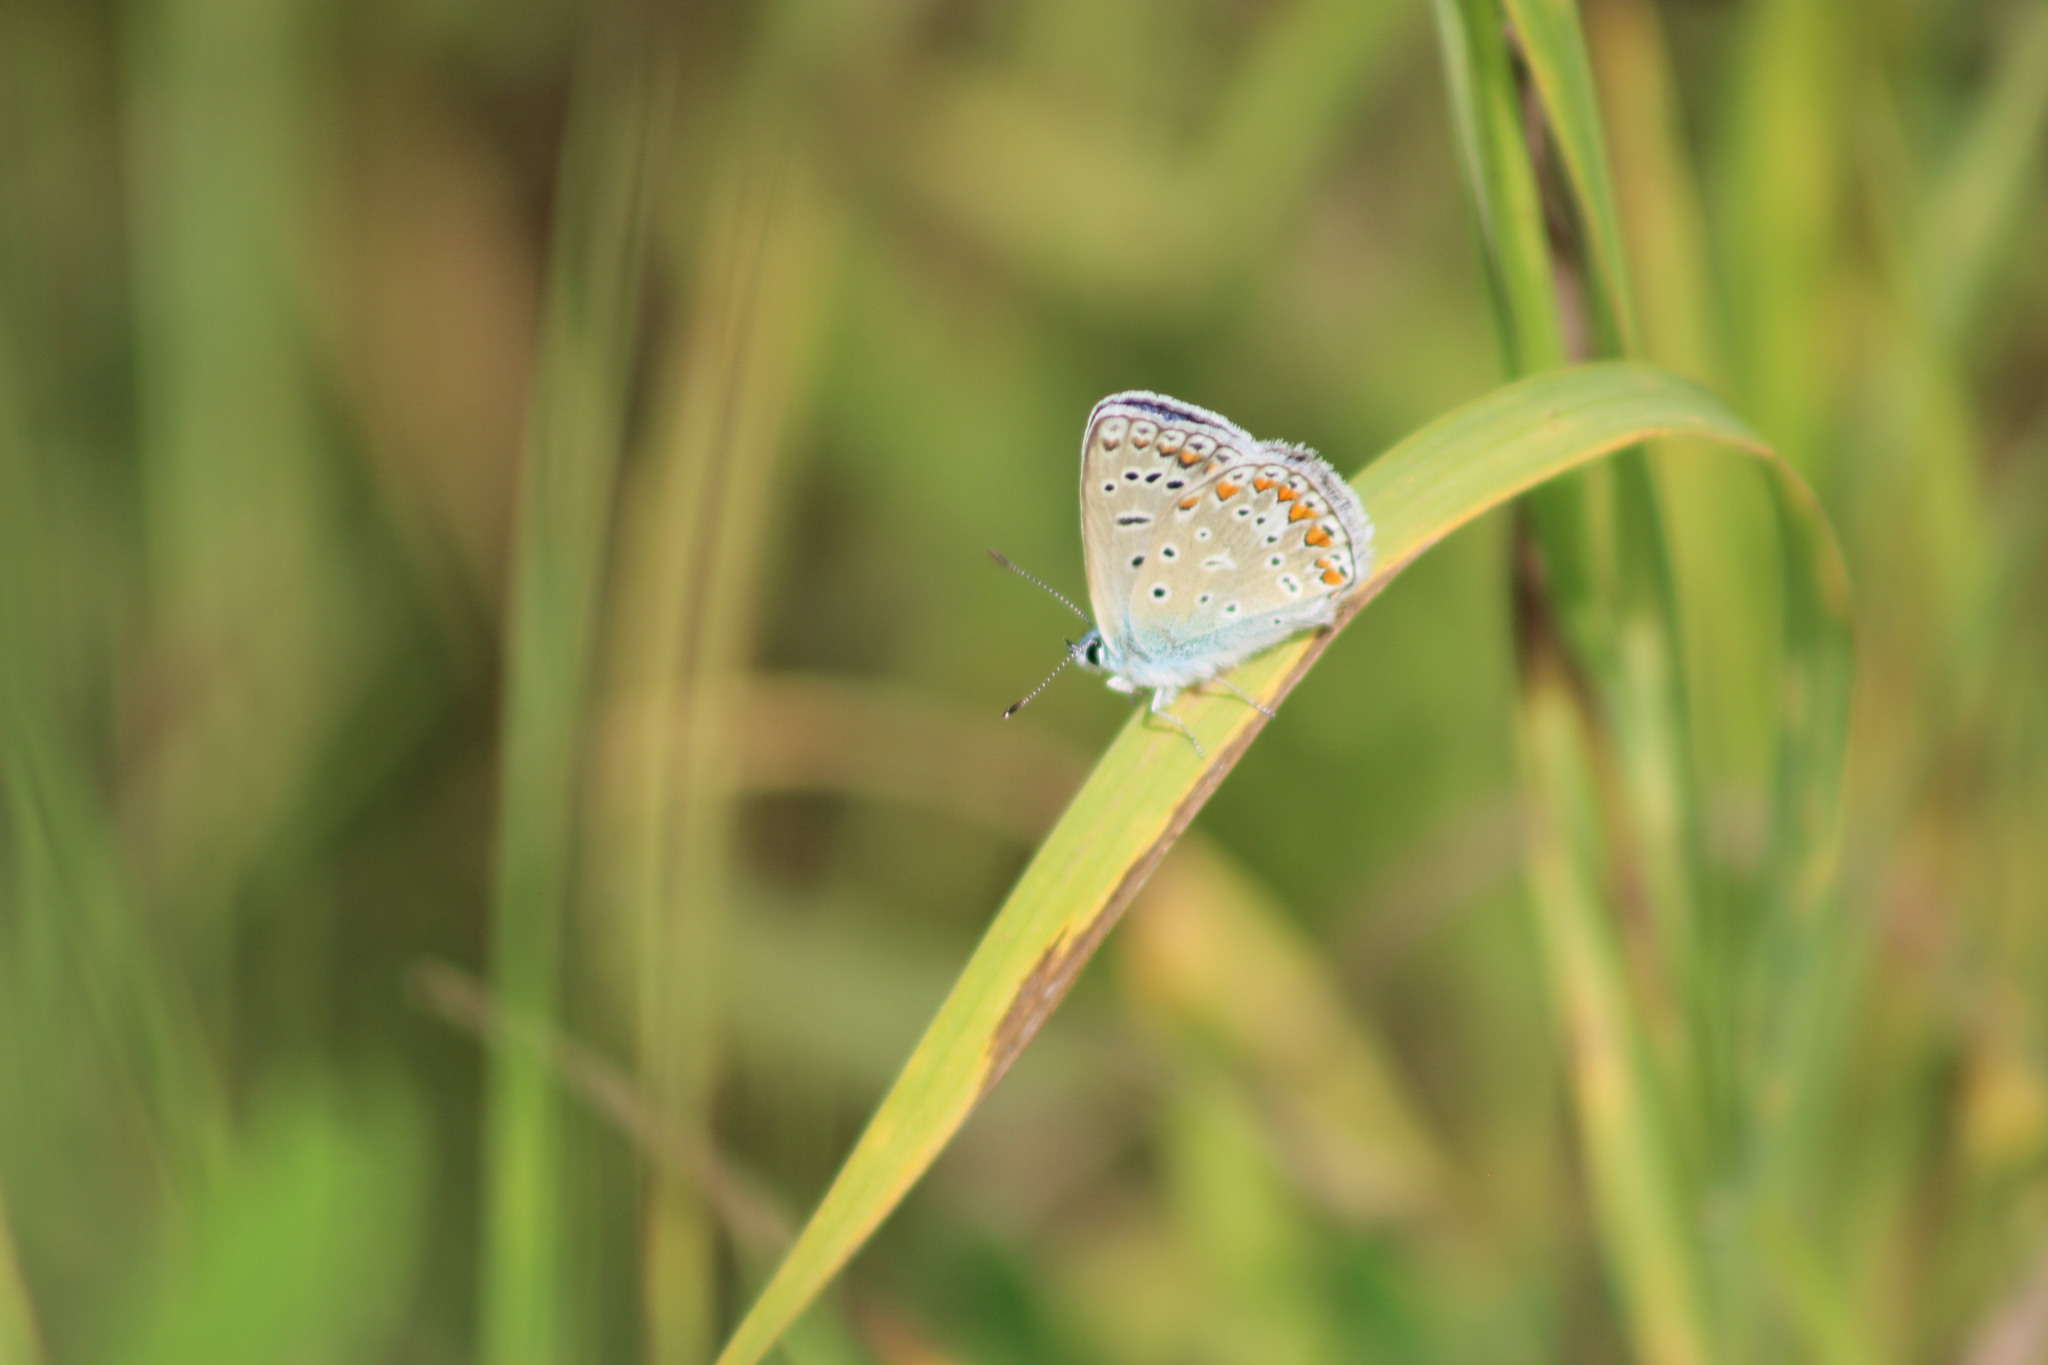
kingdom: Animalia
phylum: Arthropoda
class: Insecta
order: Lepidoptera
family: Lycaenidae
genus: Polyommatus
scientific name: Polyommatus icarus
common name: Common blue
